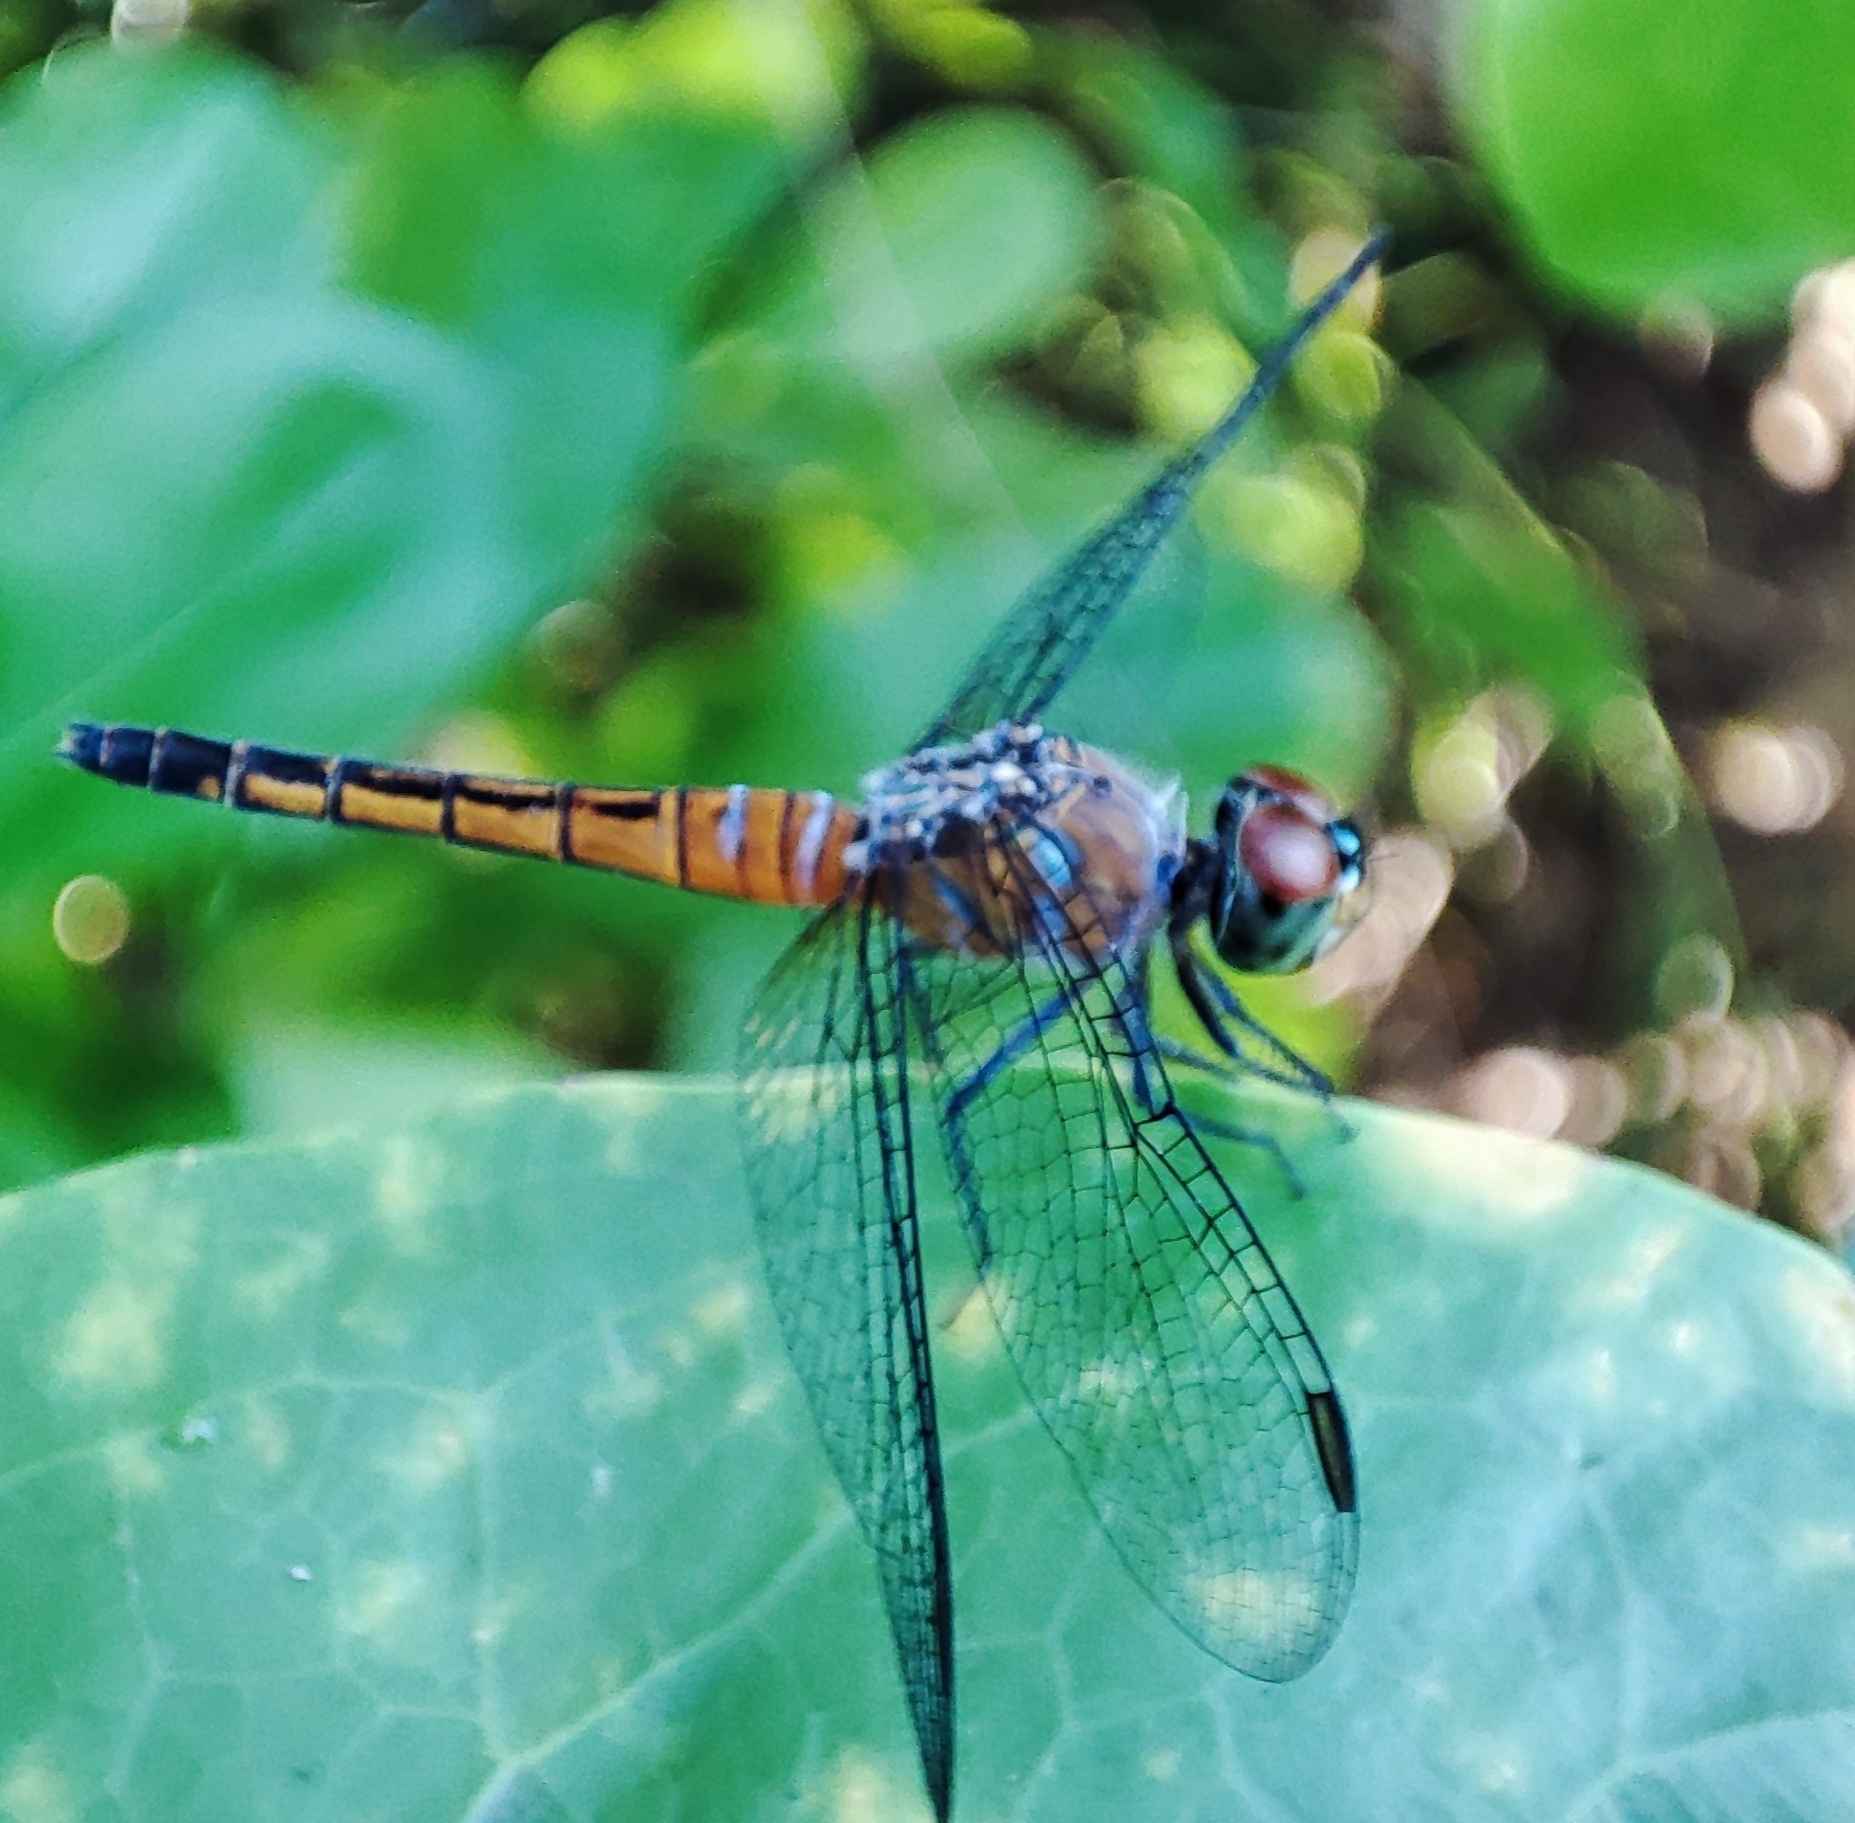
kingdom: Animalia
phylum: Arthropoda
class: Insecta
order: Odonata
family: Libellulidae
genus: Brachydiplax
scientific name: Brachydiplax chalybea
